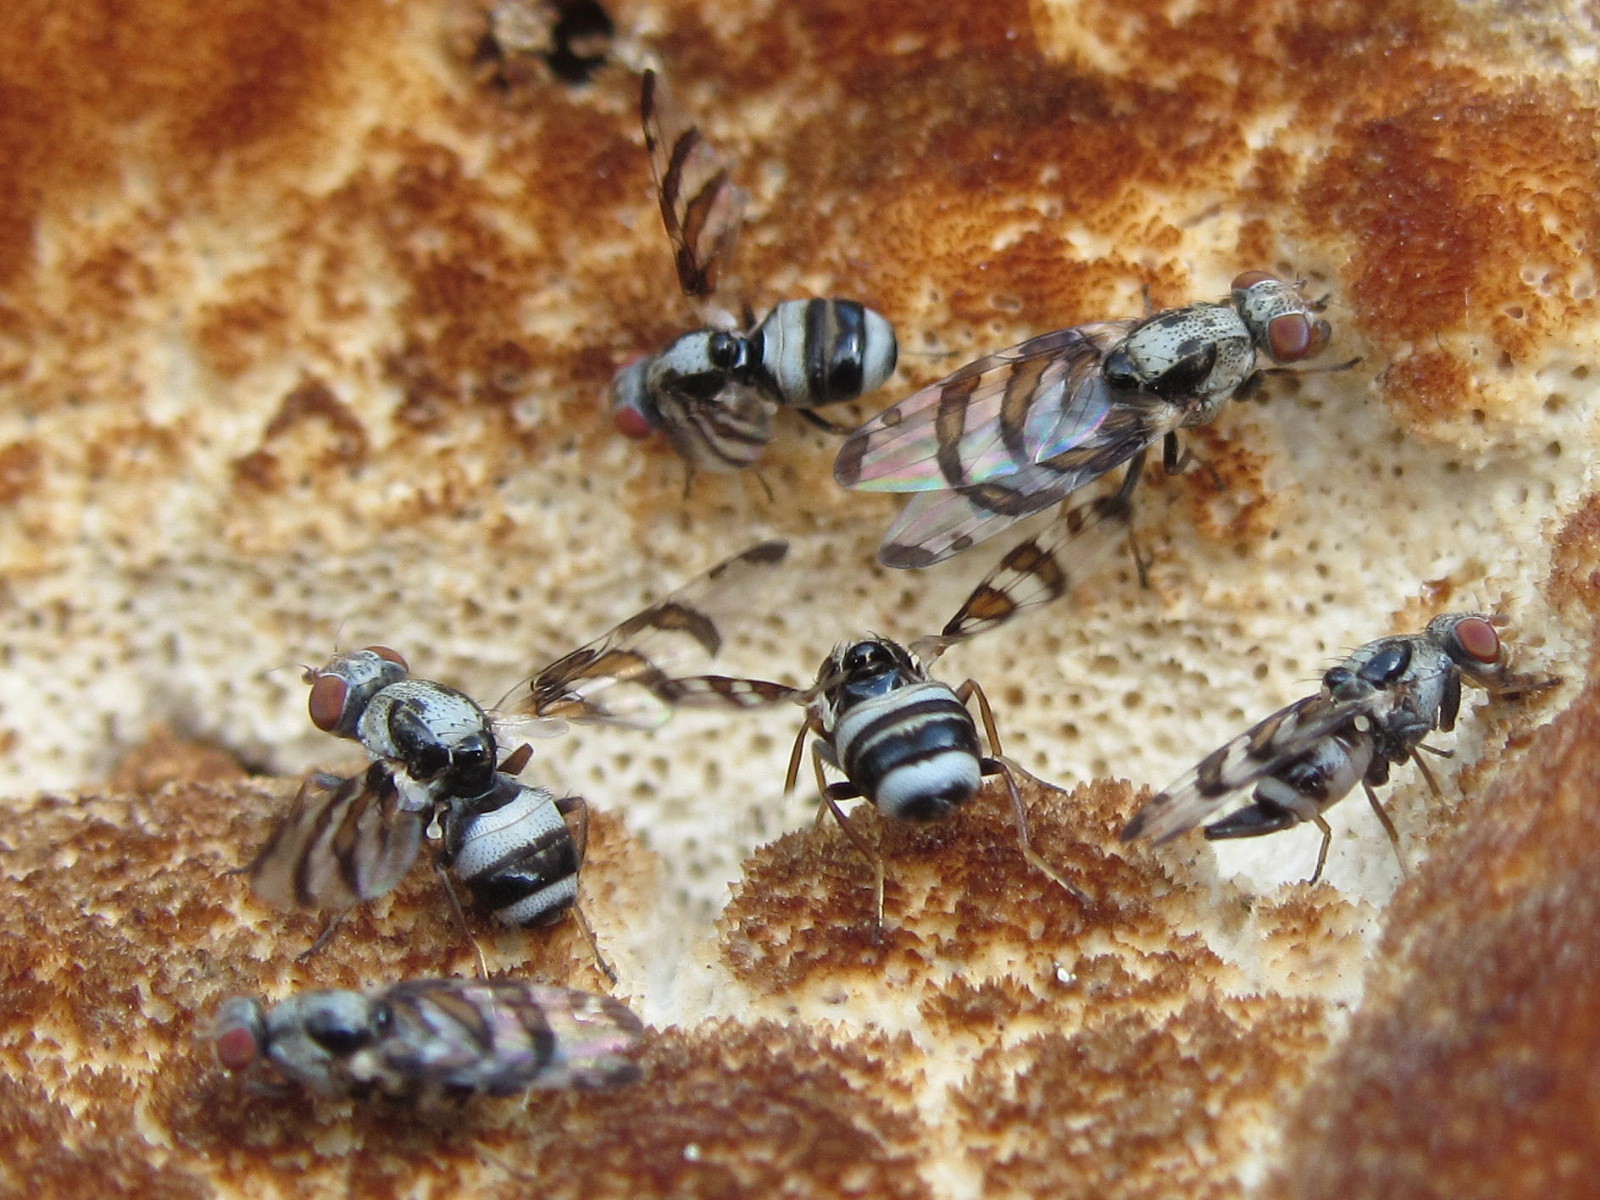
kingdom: Animalia
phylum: Arthropoda
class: Insecta
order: Diptera
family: Ulidiidae
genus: Myennis
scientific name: Myennis octopunctata
